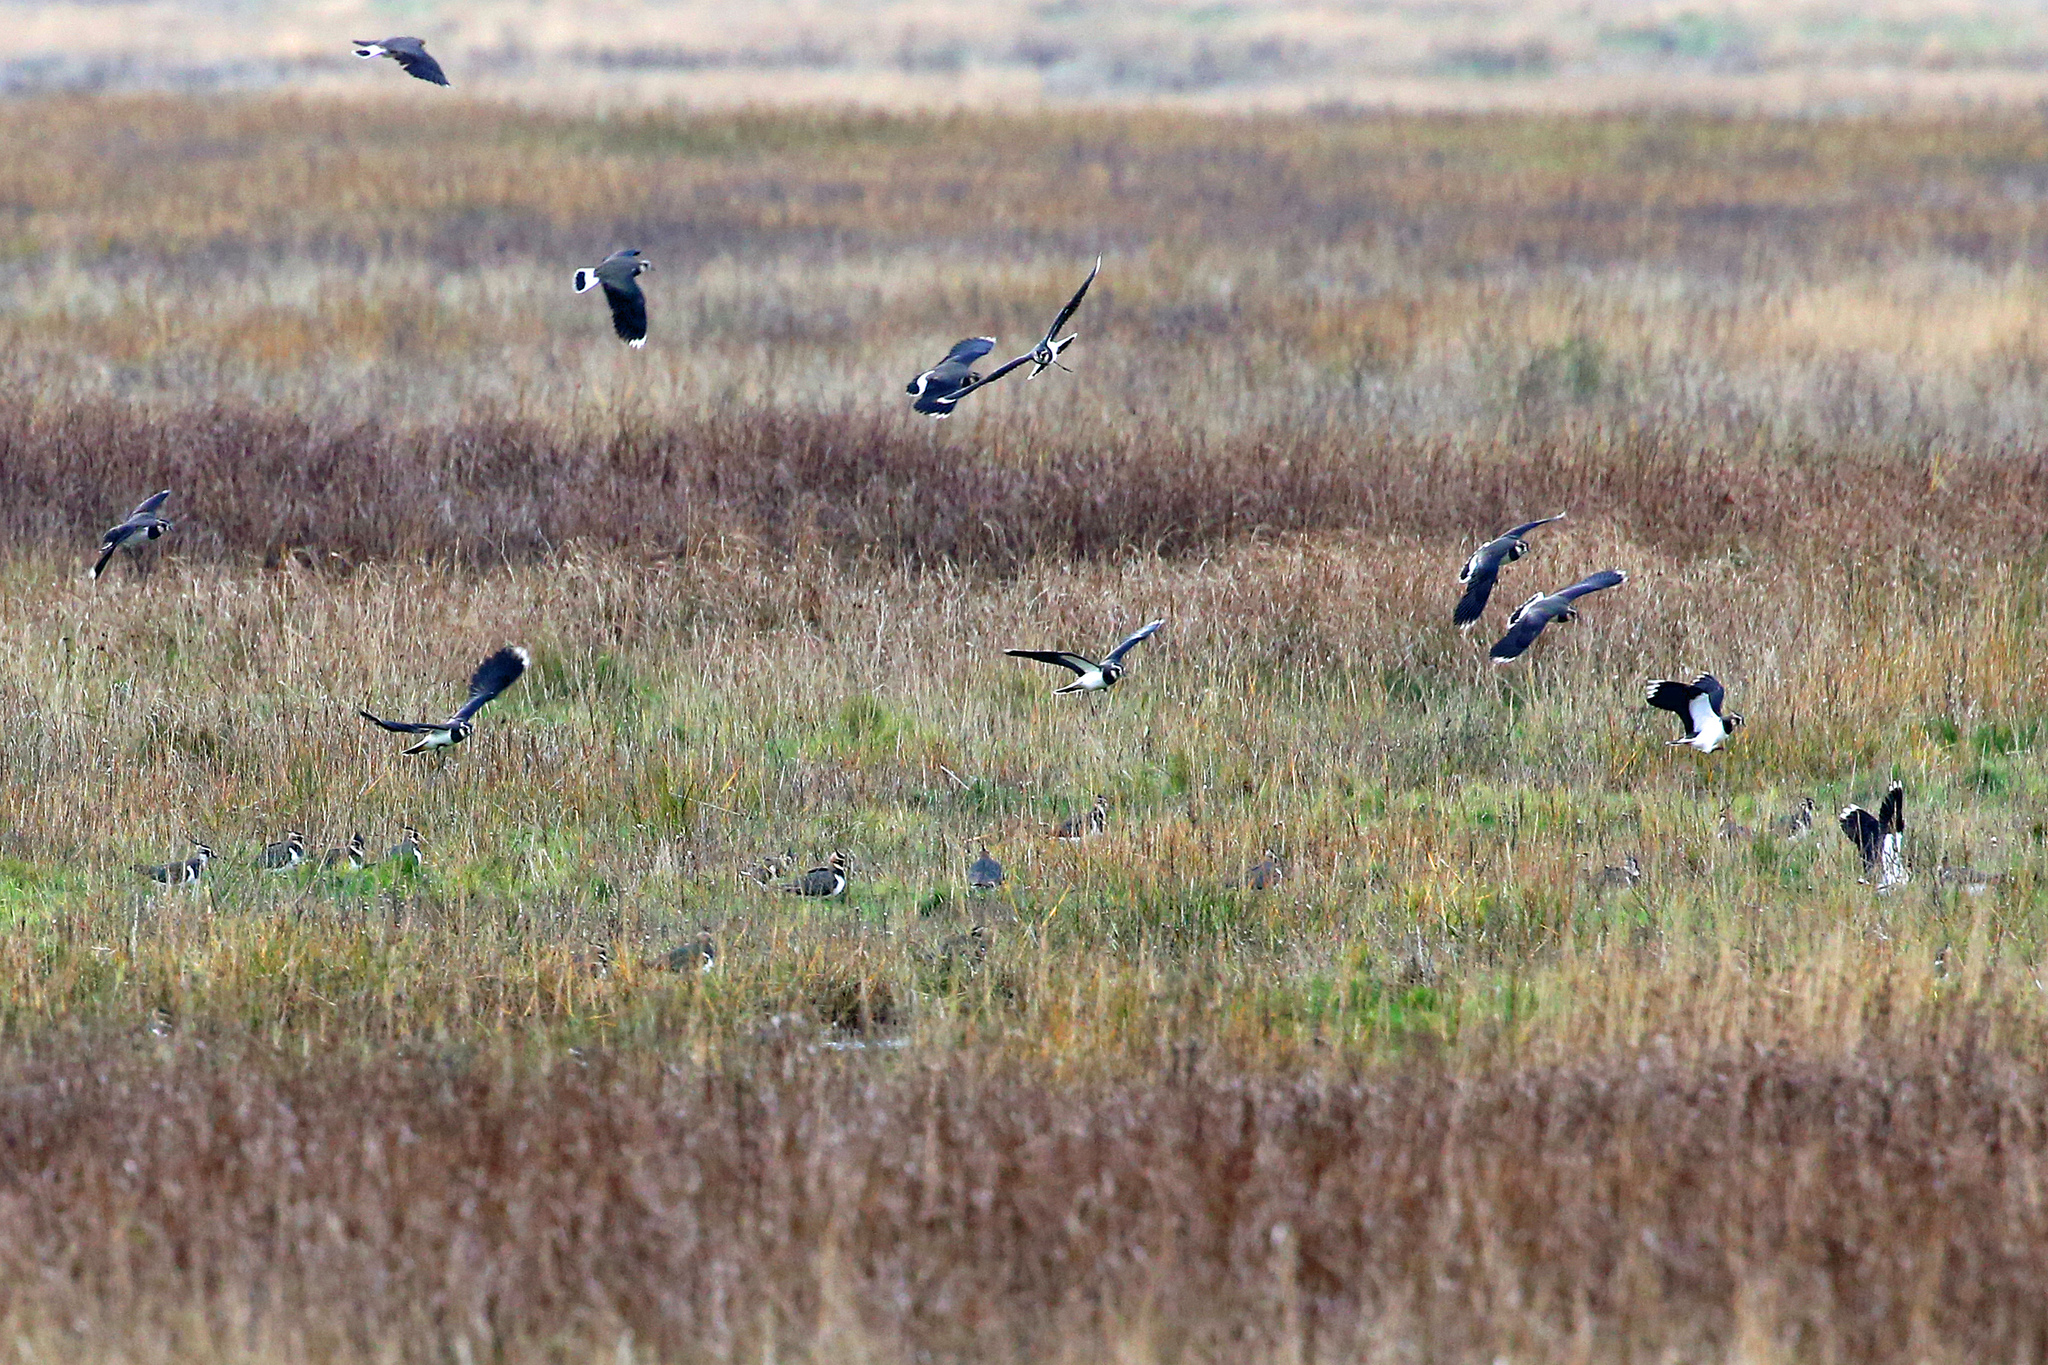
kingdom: Animalia
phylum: Chordata
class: Aves
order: Charadriiformes
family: Charadriidae
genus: Vanellus
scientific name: Vanellus vanellus
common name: Northern lapwing
